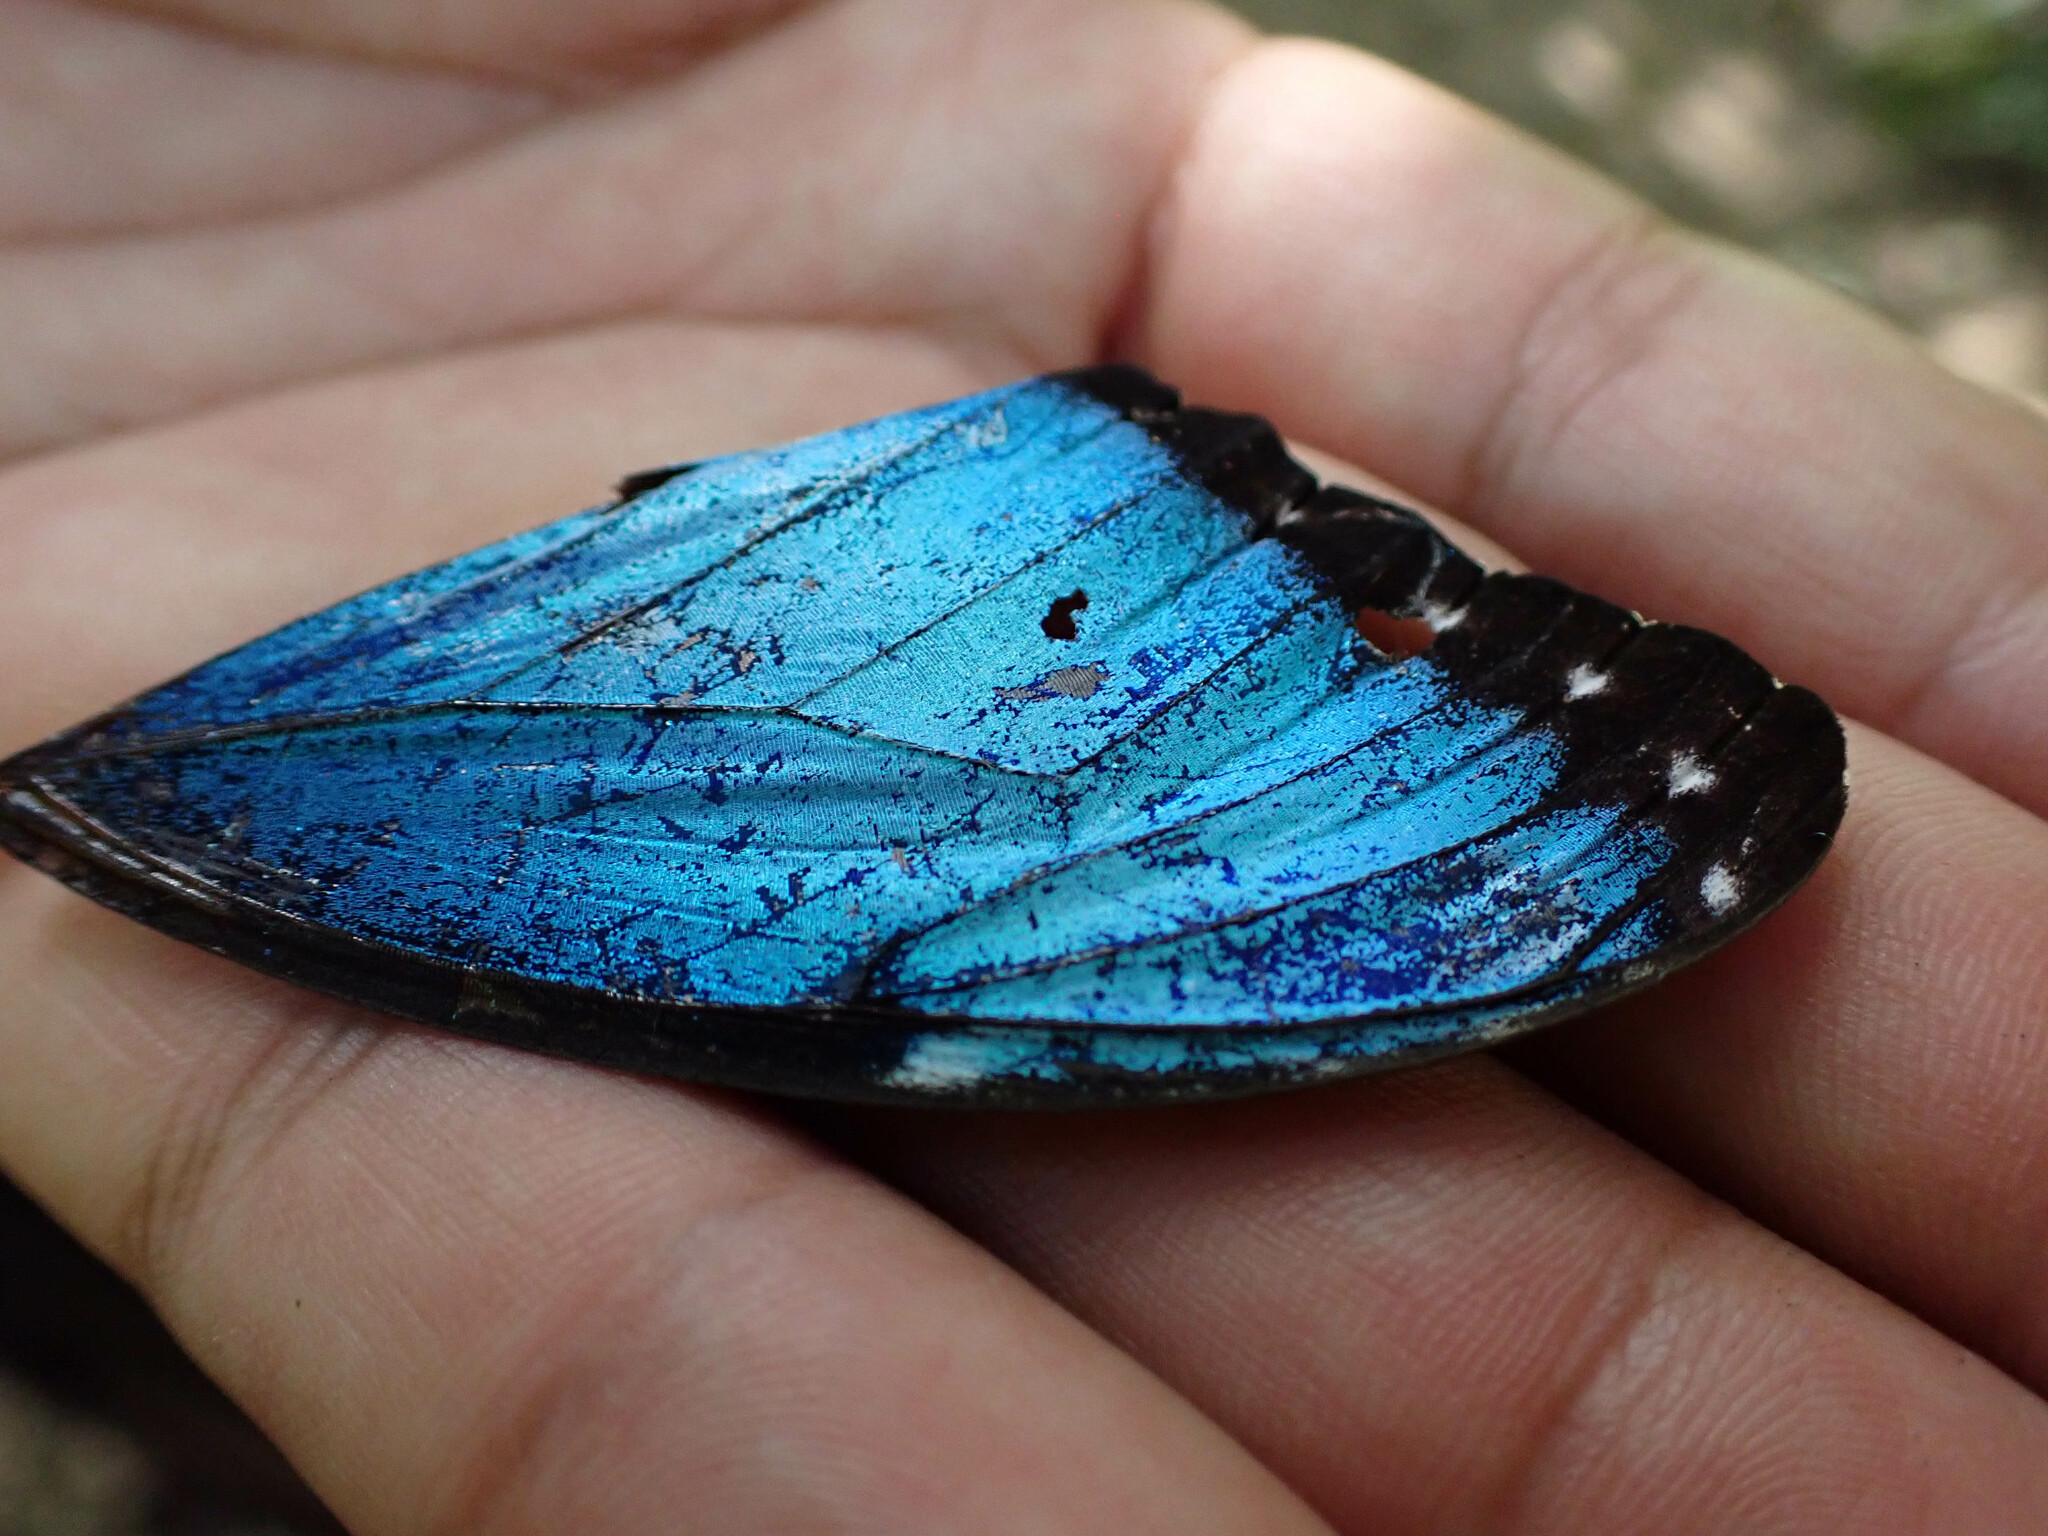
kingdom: Animalia
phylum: Arthropoda
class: Insecta
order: Lepidoptera
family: Nymphalidae
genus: Morpho
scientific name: Morpho helenor
